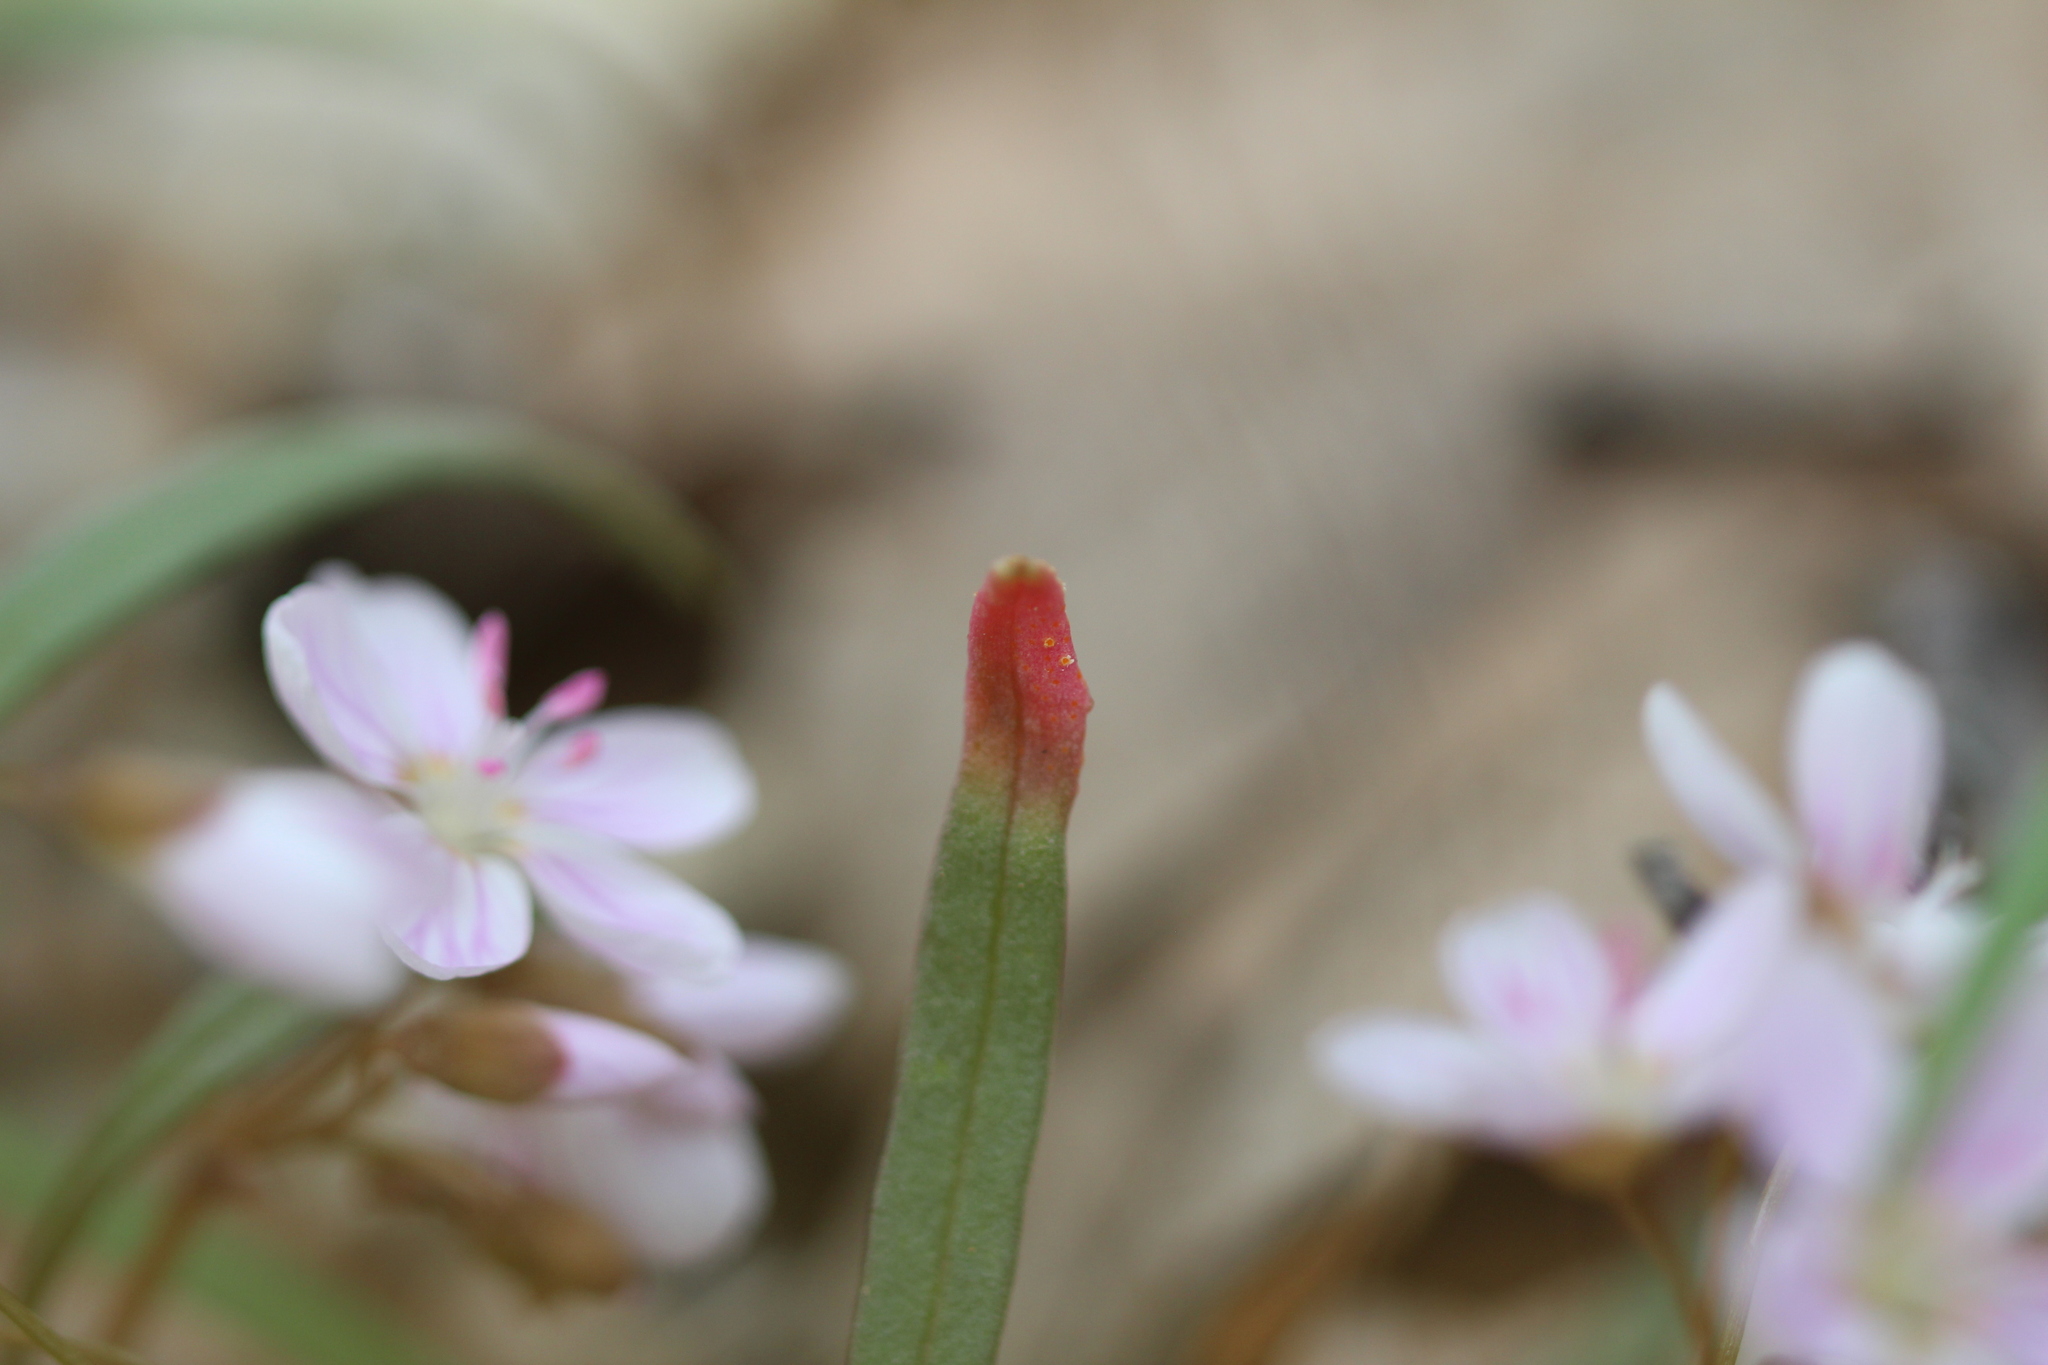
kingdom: Fungi
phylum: Basidiomycota
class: Pucciniomycetes
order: Pucciniales
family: Pucciniaceae
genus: Puccinia
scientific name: Puccinia mariae-wilsoniae
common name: Spring beauty rust
